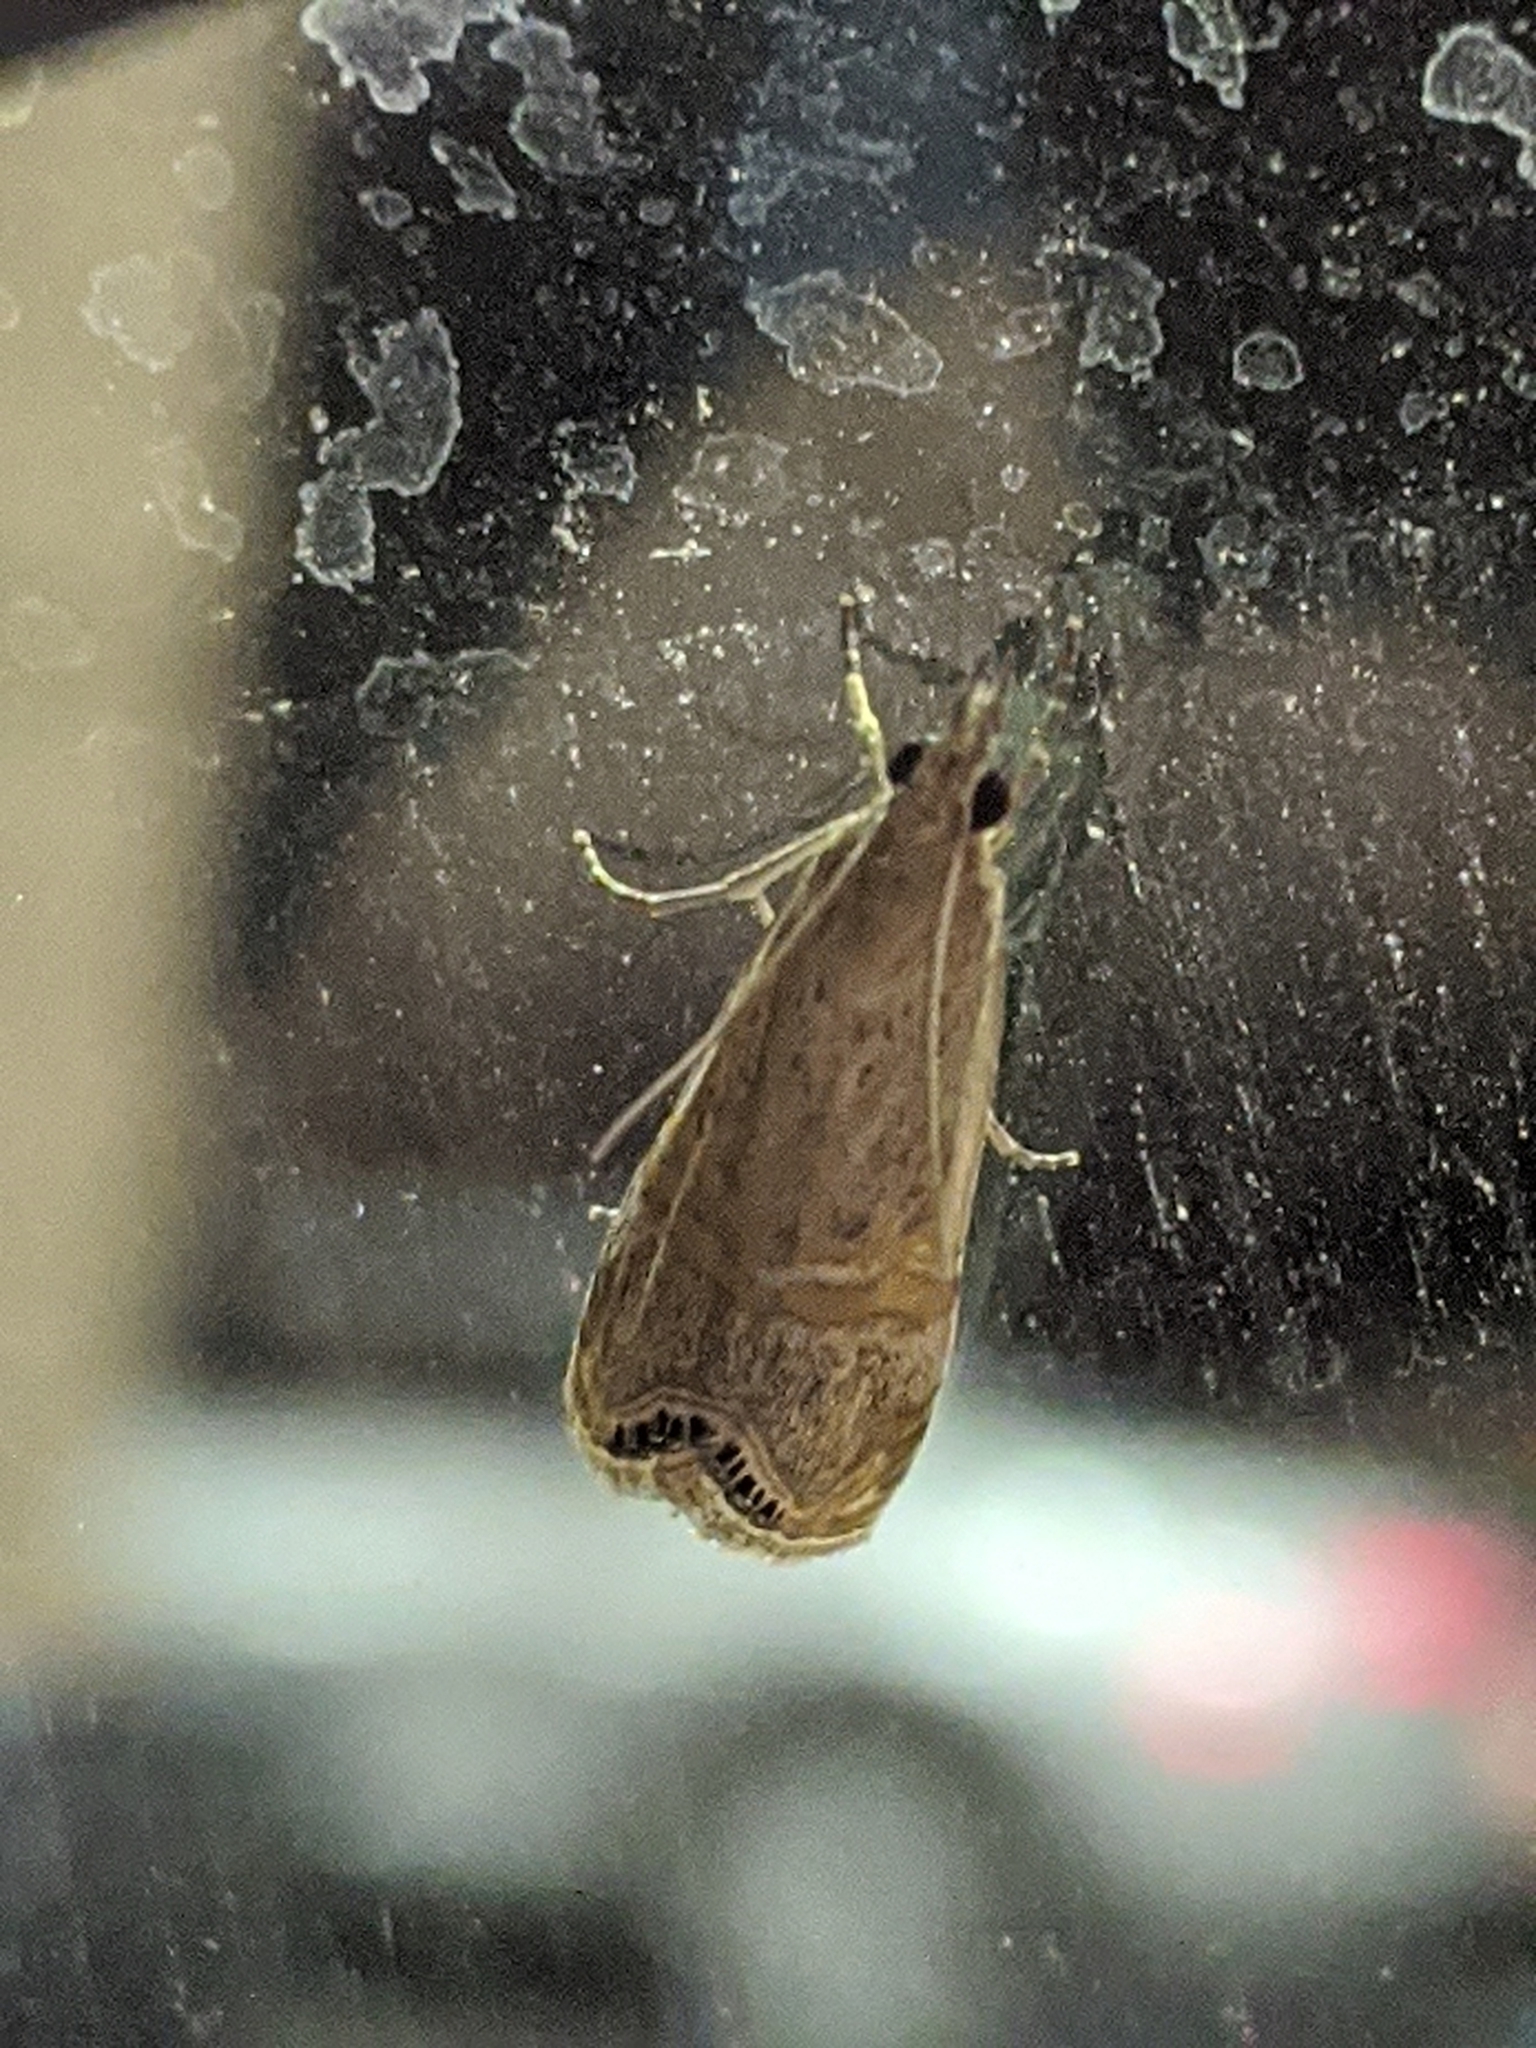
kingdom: Animalia
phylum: Arthropoda
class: Insecta
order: Lepidoptera
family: Crambidae
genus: Euchromius
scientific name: Euchromius ocellea
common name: Necklace veneer moth
